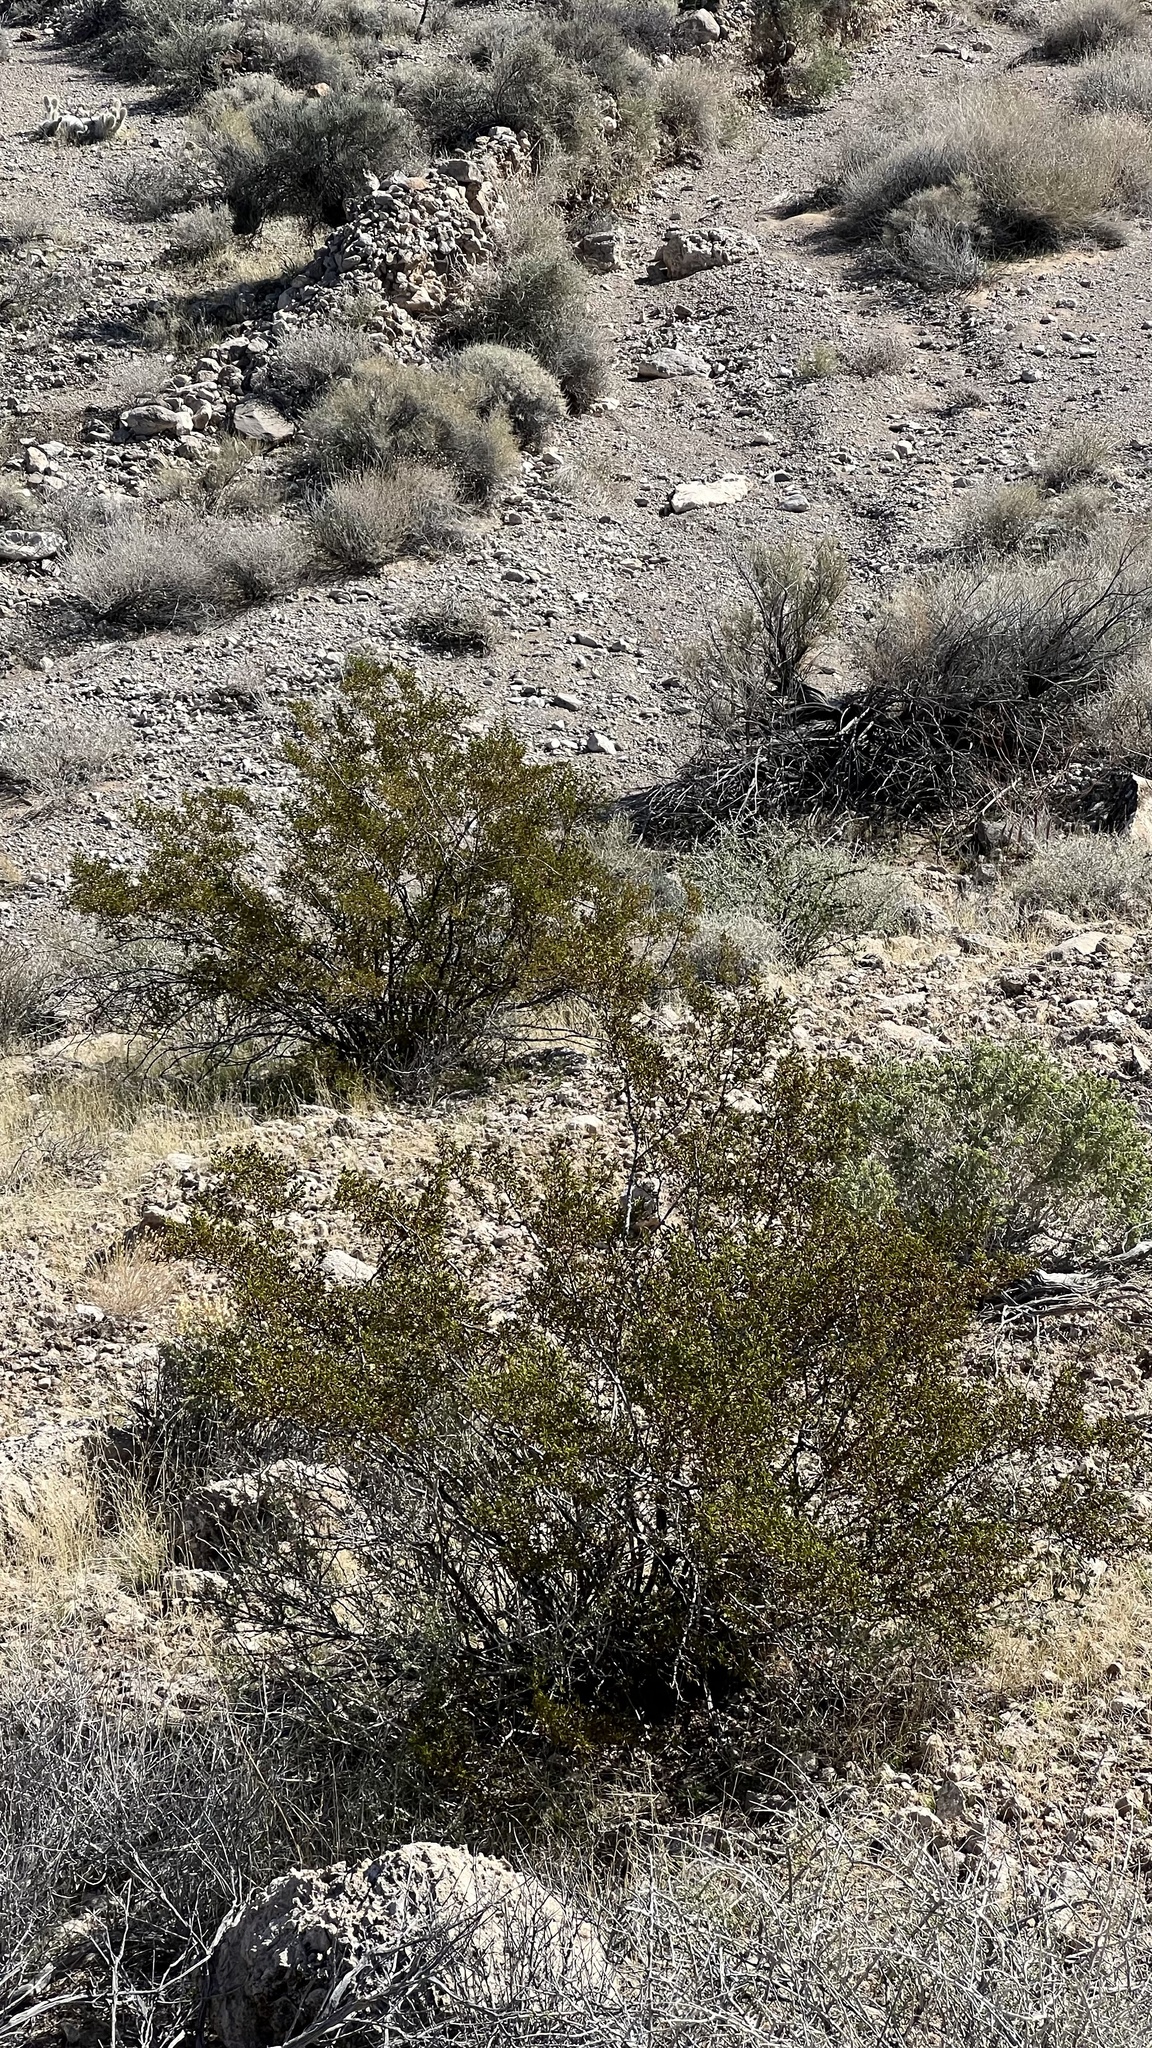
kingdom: Plantae
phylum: Tracheophyta
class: Magnoliopsida
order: Zygophyllales
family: Zygophyllaceae
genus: Larrea
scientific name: Larrea tridentata
